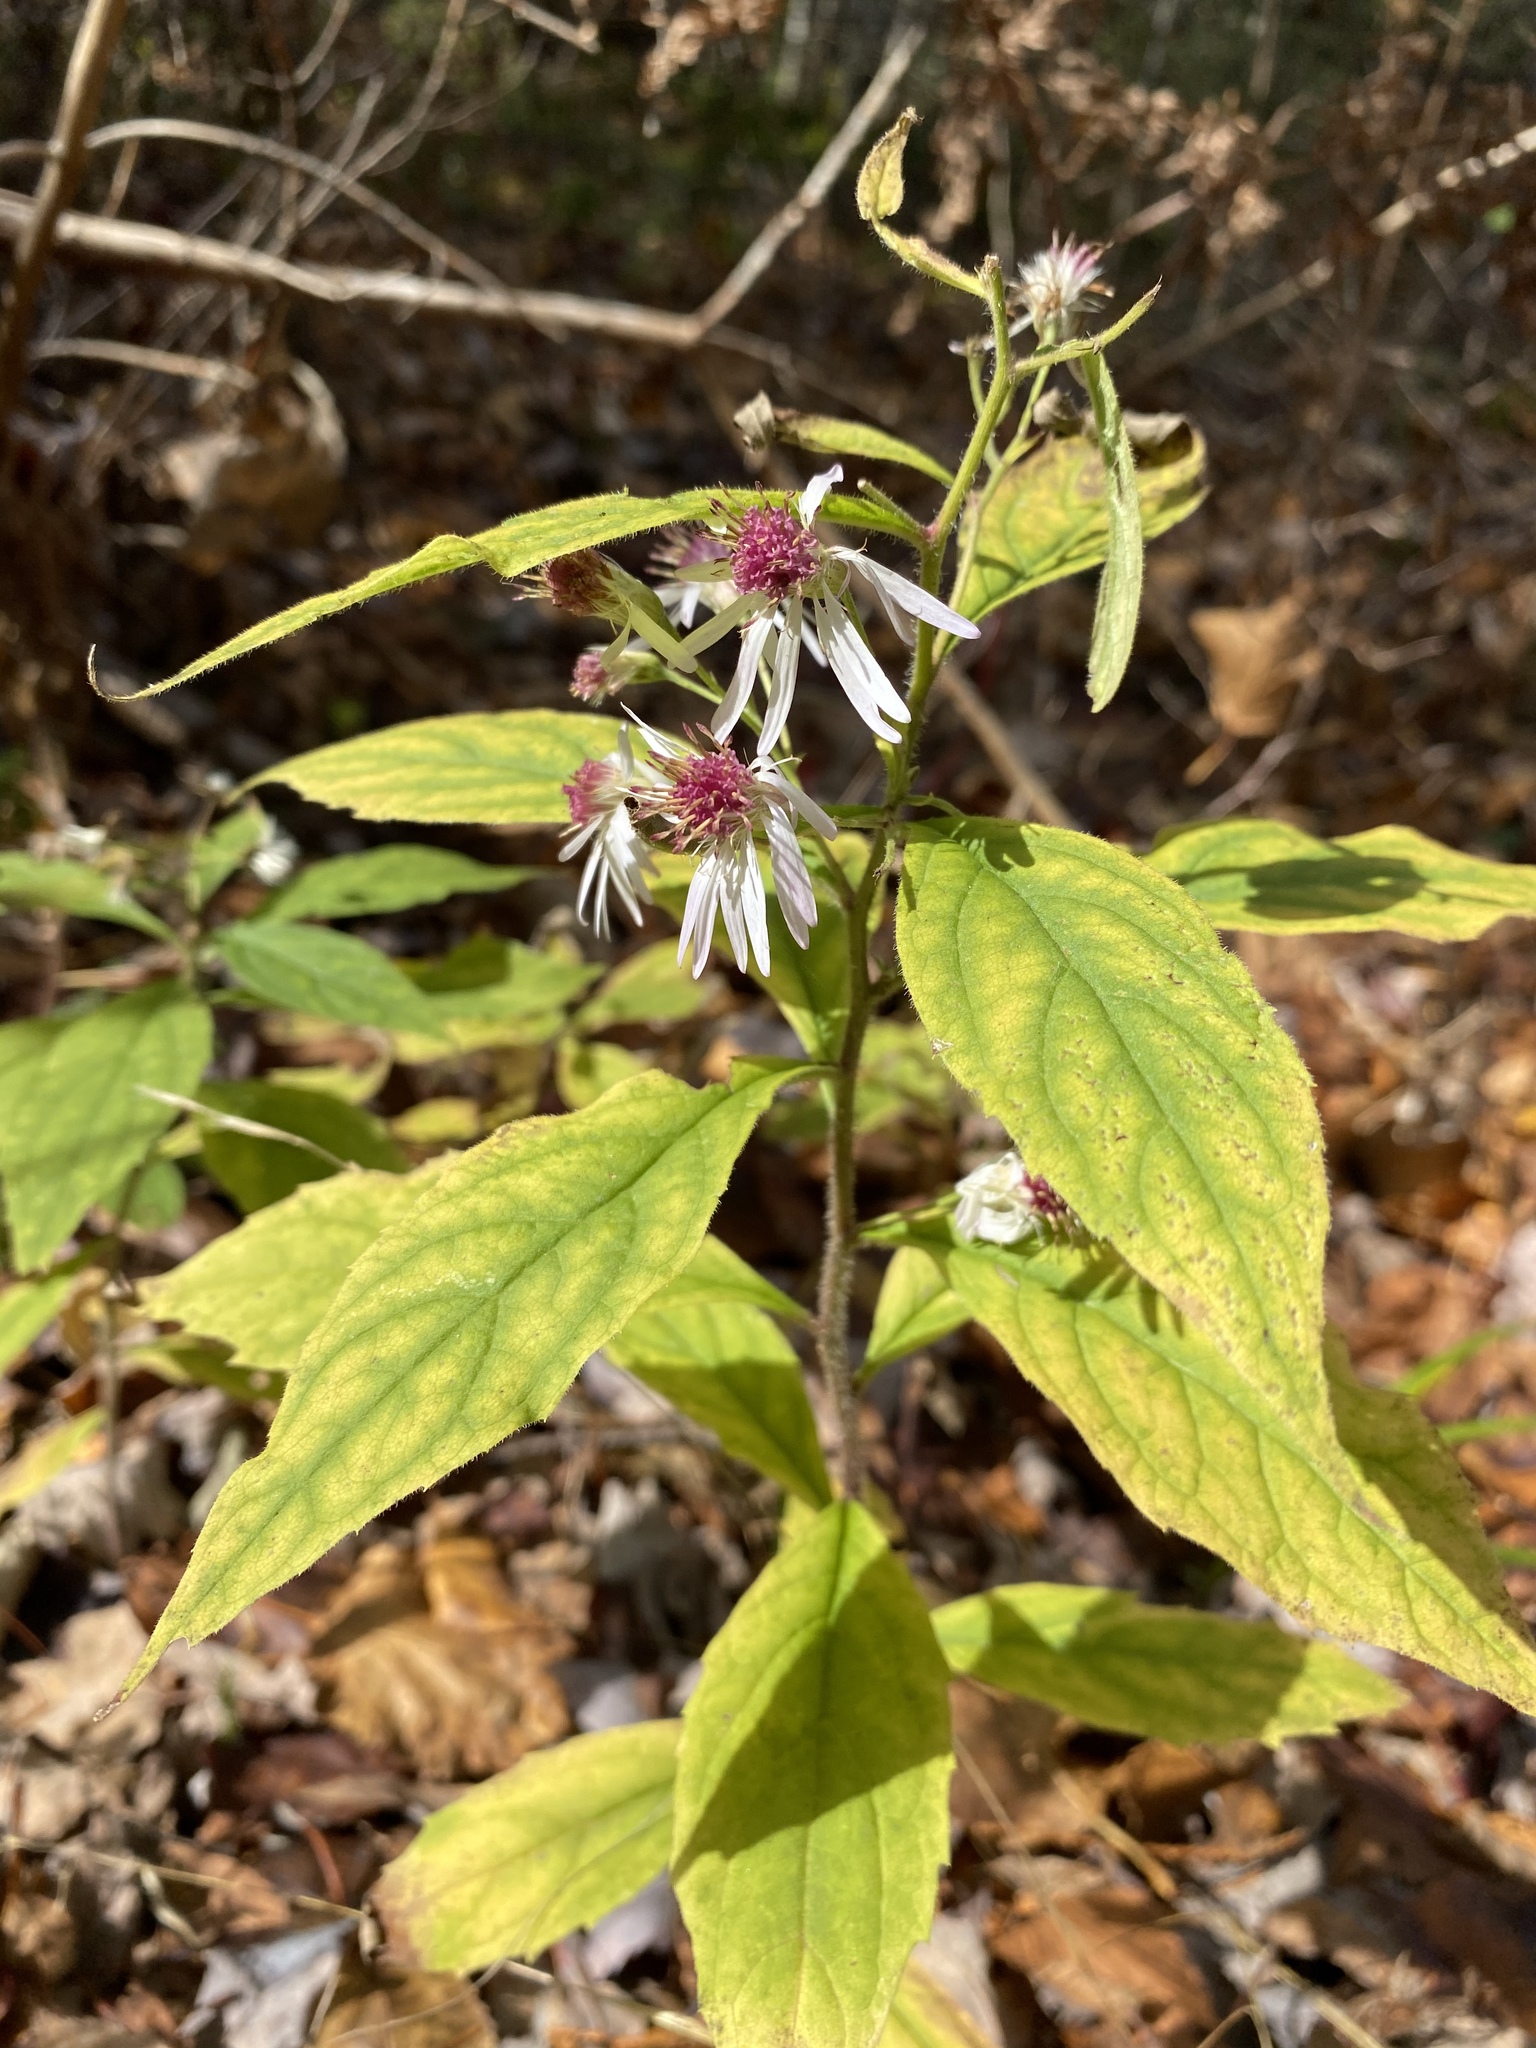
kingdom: Plantae
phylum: Tracheophyta
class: Magnoliopsida
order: Asterales
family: Asteraceae
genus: Oclemena
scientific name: Oclemena acuminata
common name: Mountain aster
